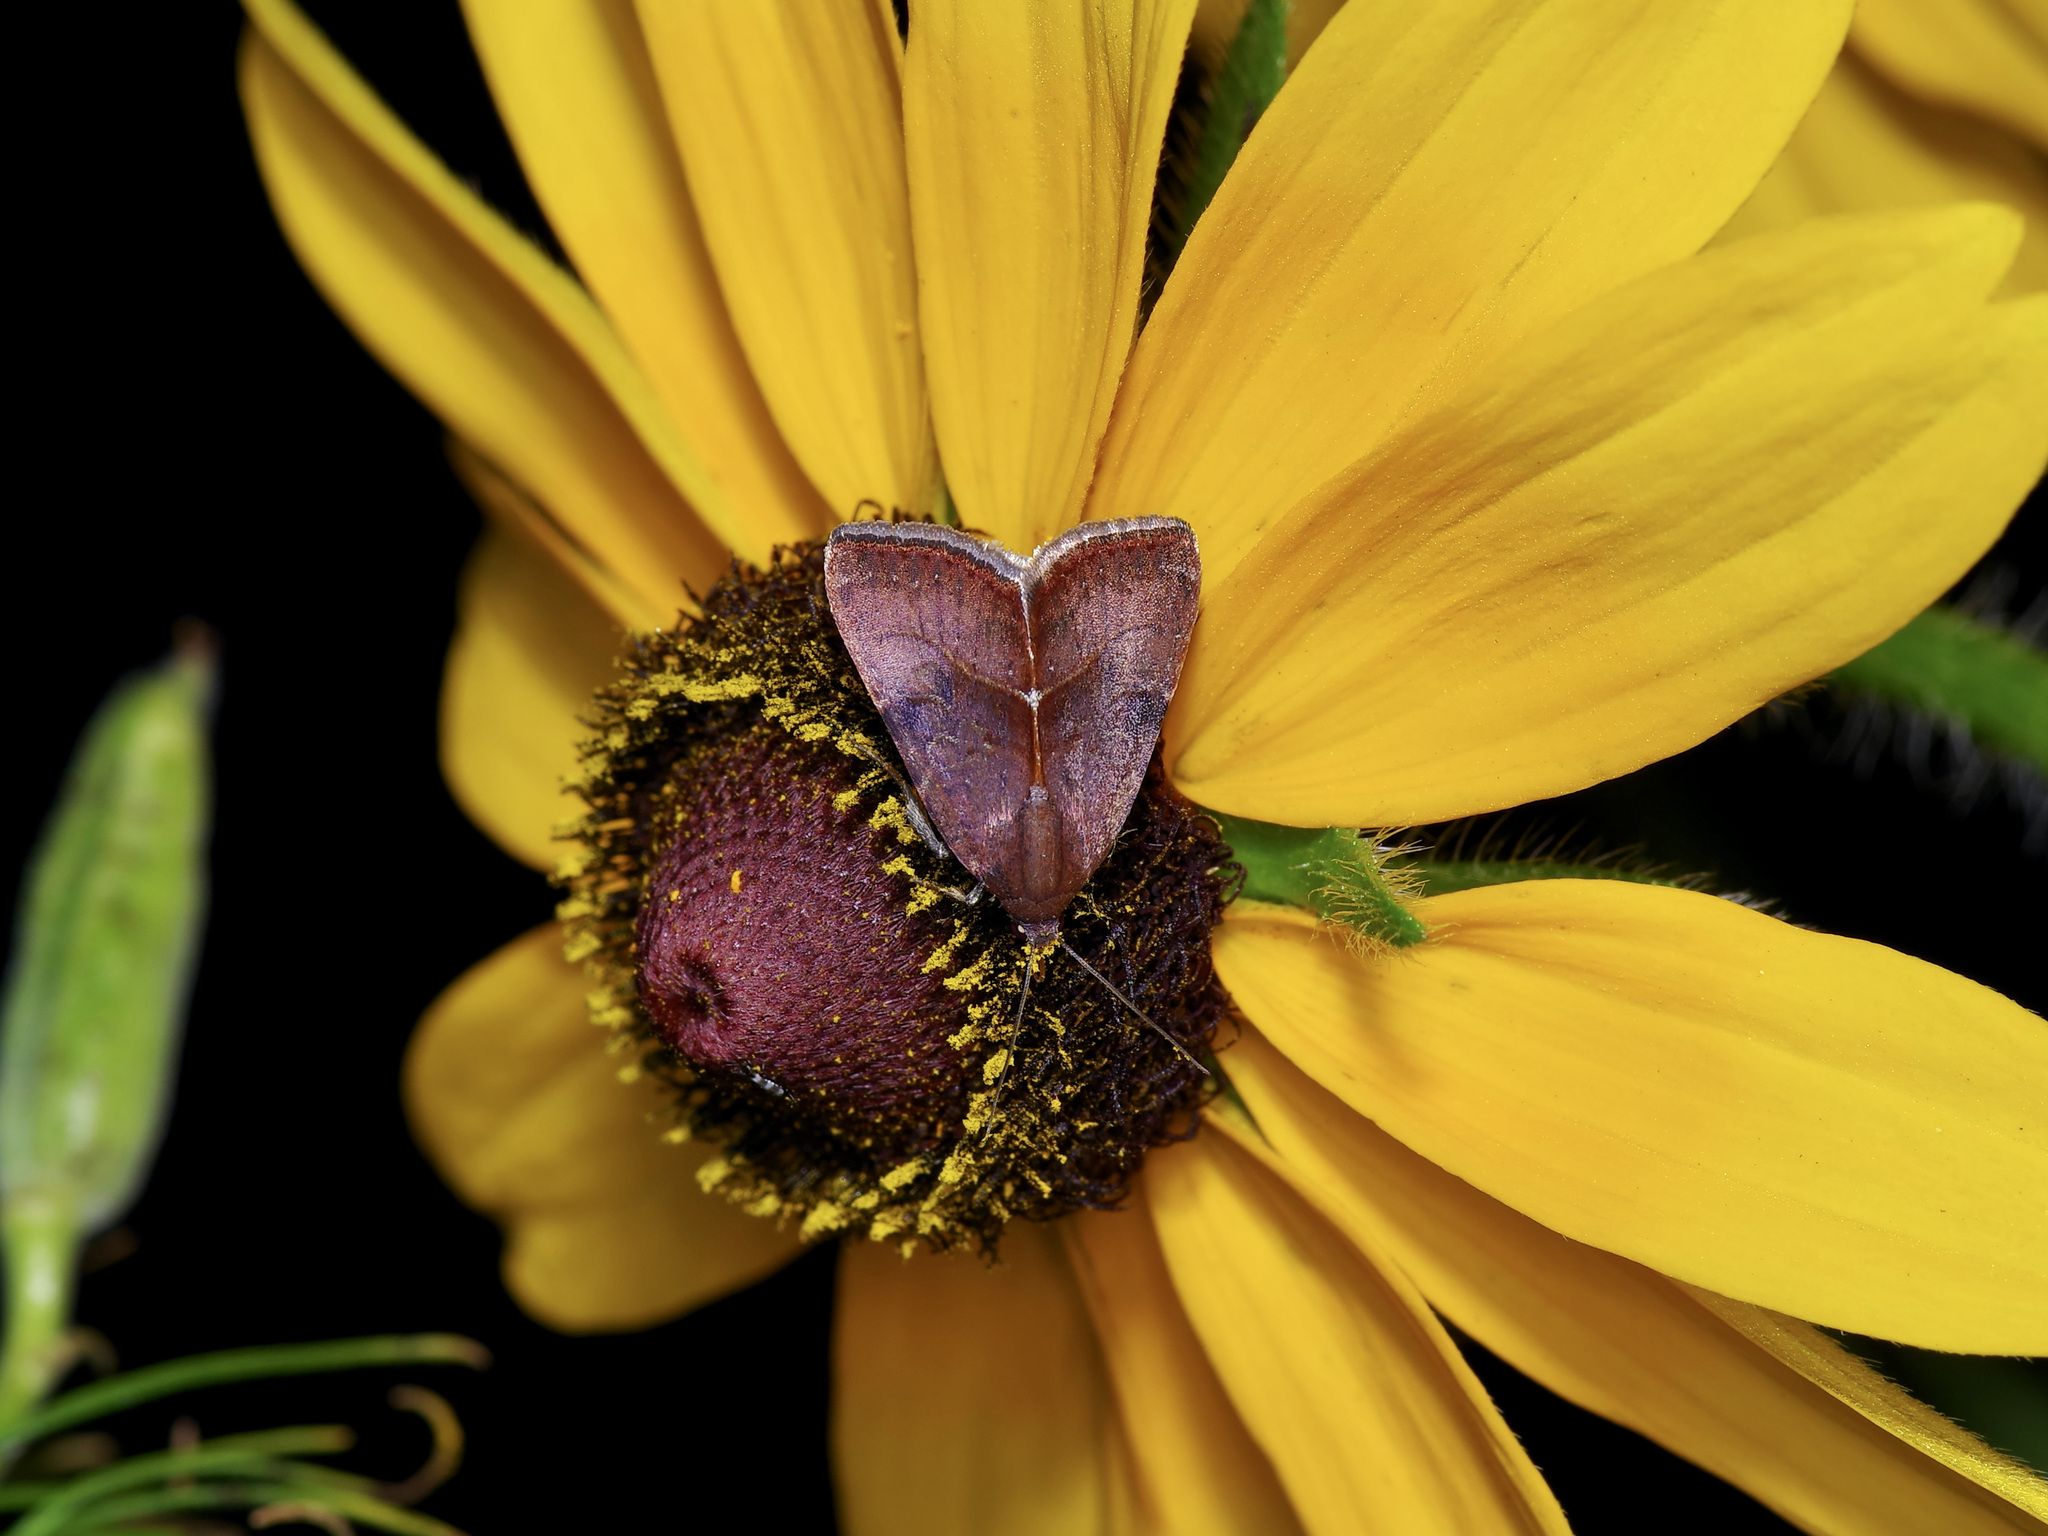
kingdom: Animalia
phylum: Arthropoda
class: Insecta
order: Lepidoptera
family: Noctuidae
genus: Galgula
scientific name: Galgula partita
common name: Wedgeling
